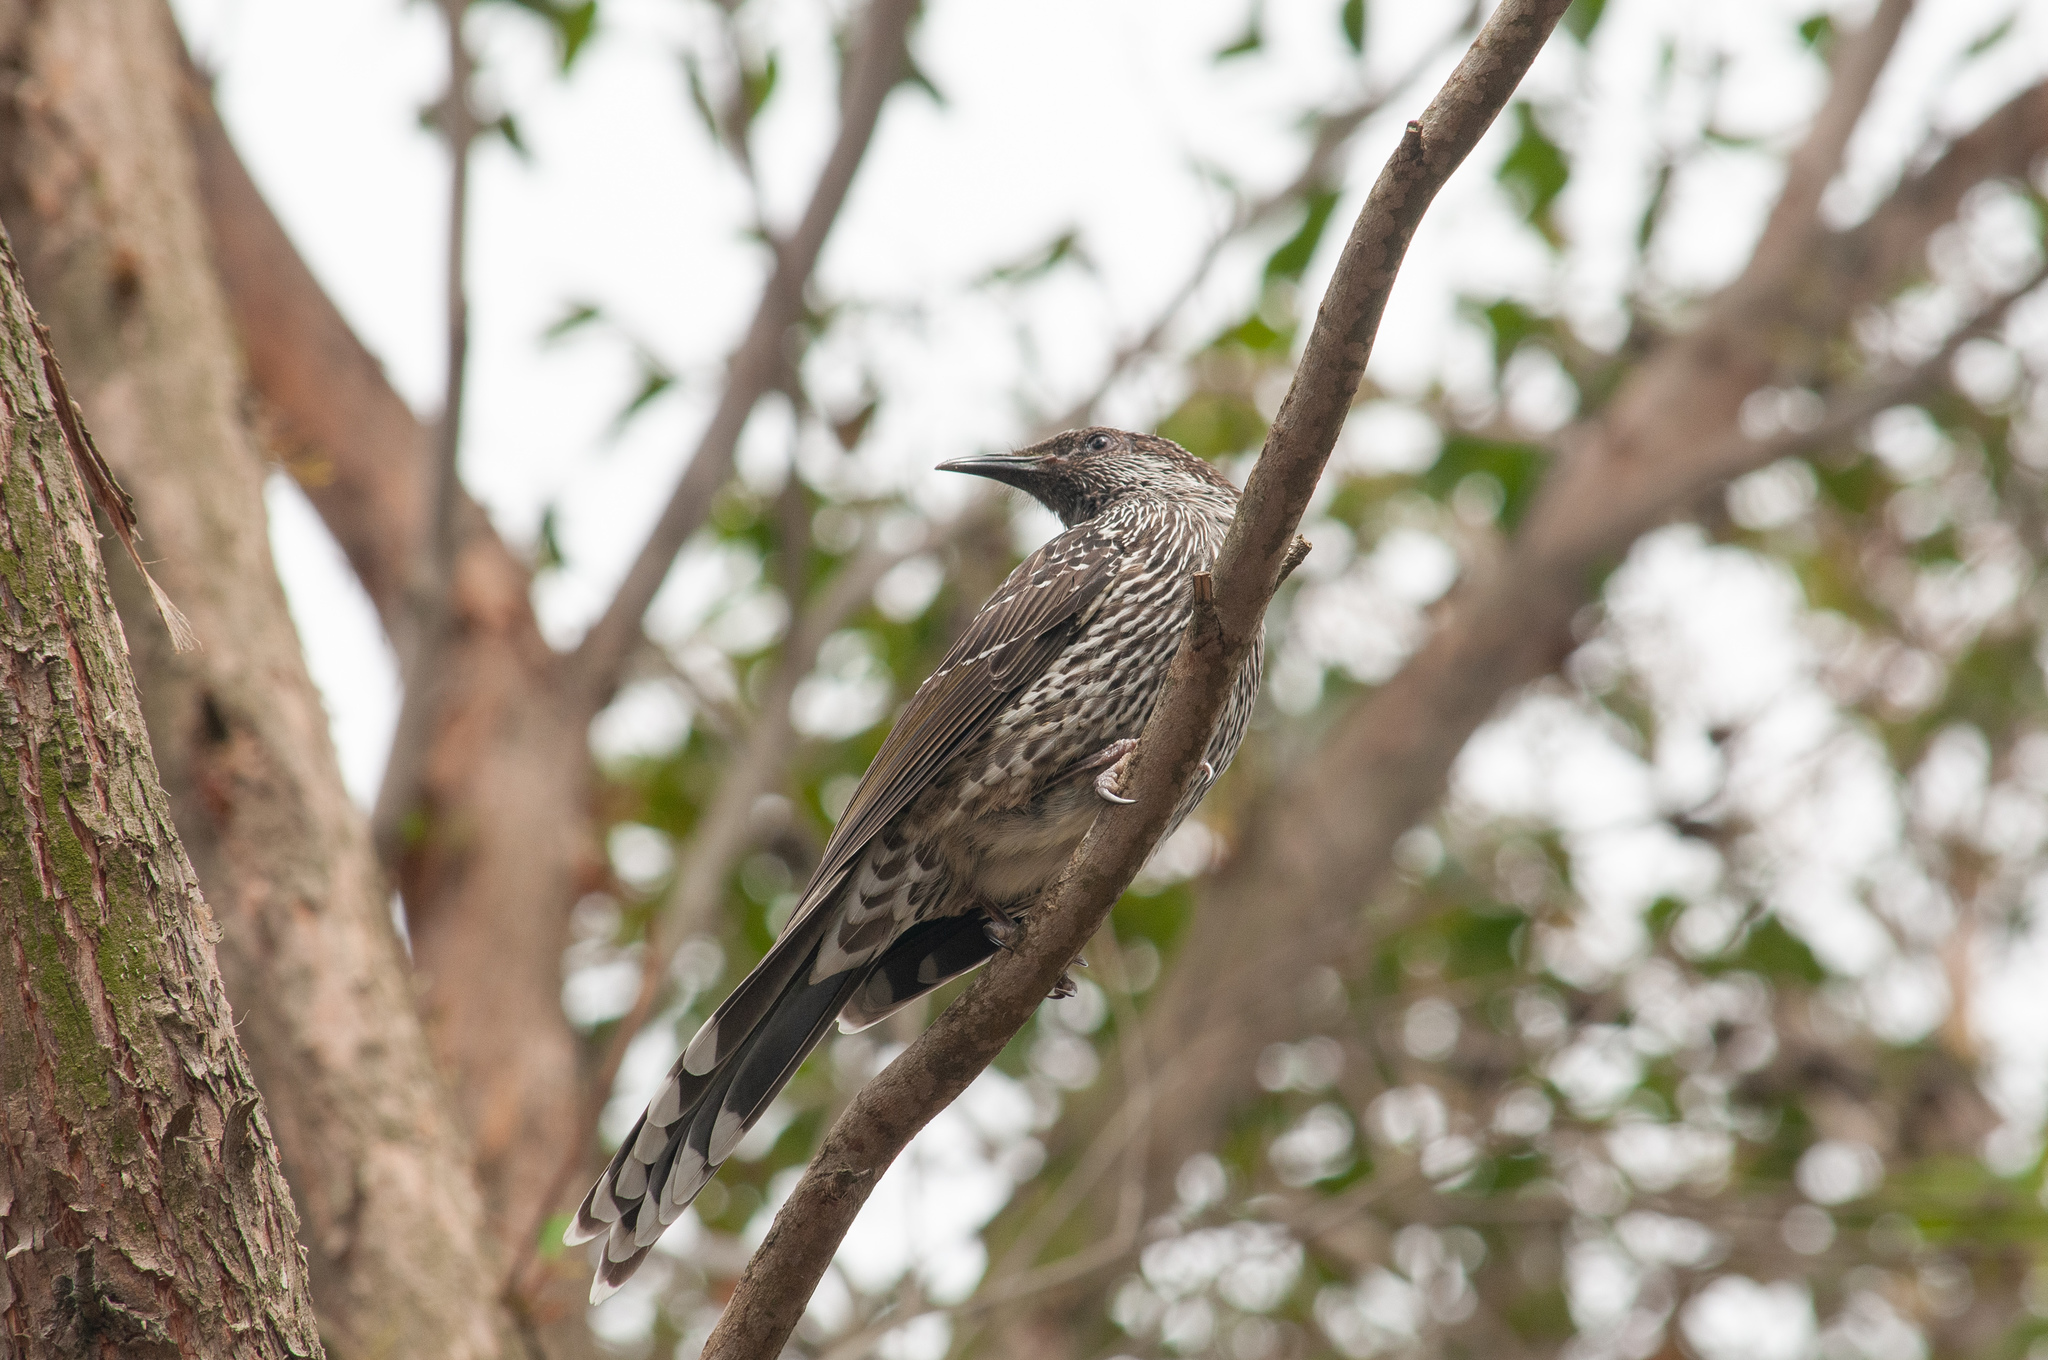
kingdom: Animalia
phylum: Chordata
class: Aves
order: Passeriformes
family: Meliphagidae
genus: Anthochaera
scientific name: Anthochaera chrysoptera
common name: Little wattlebird
